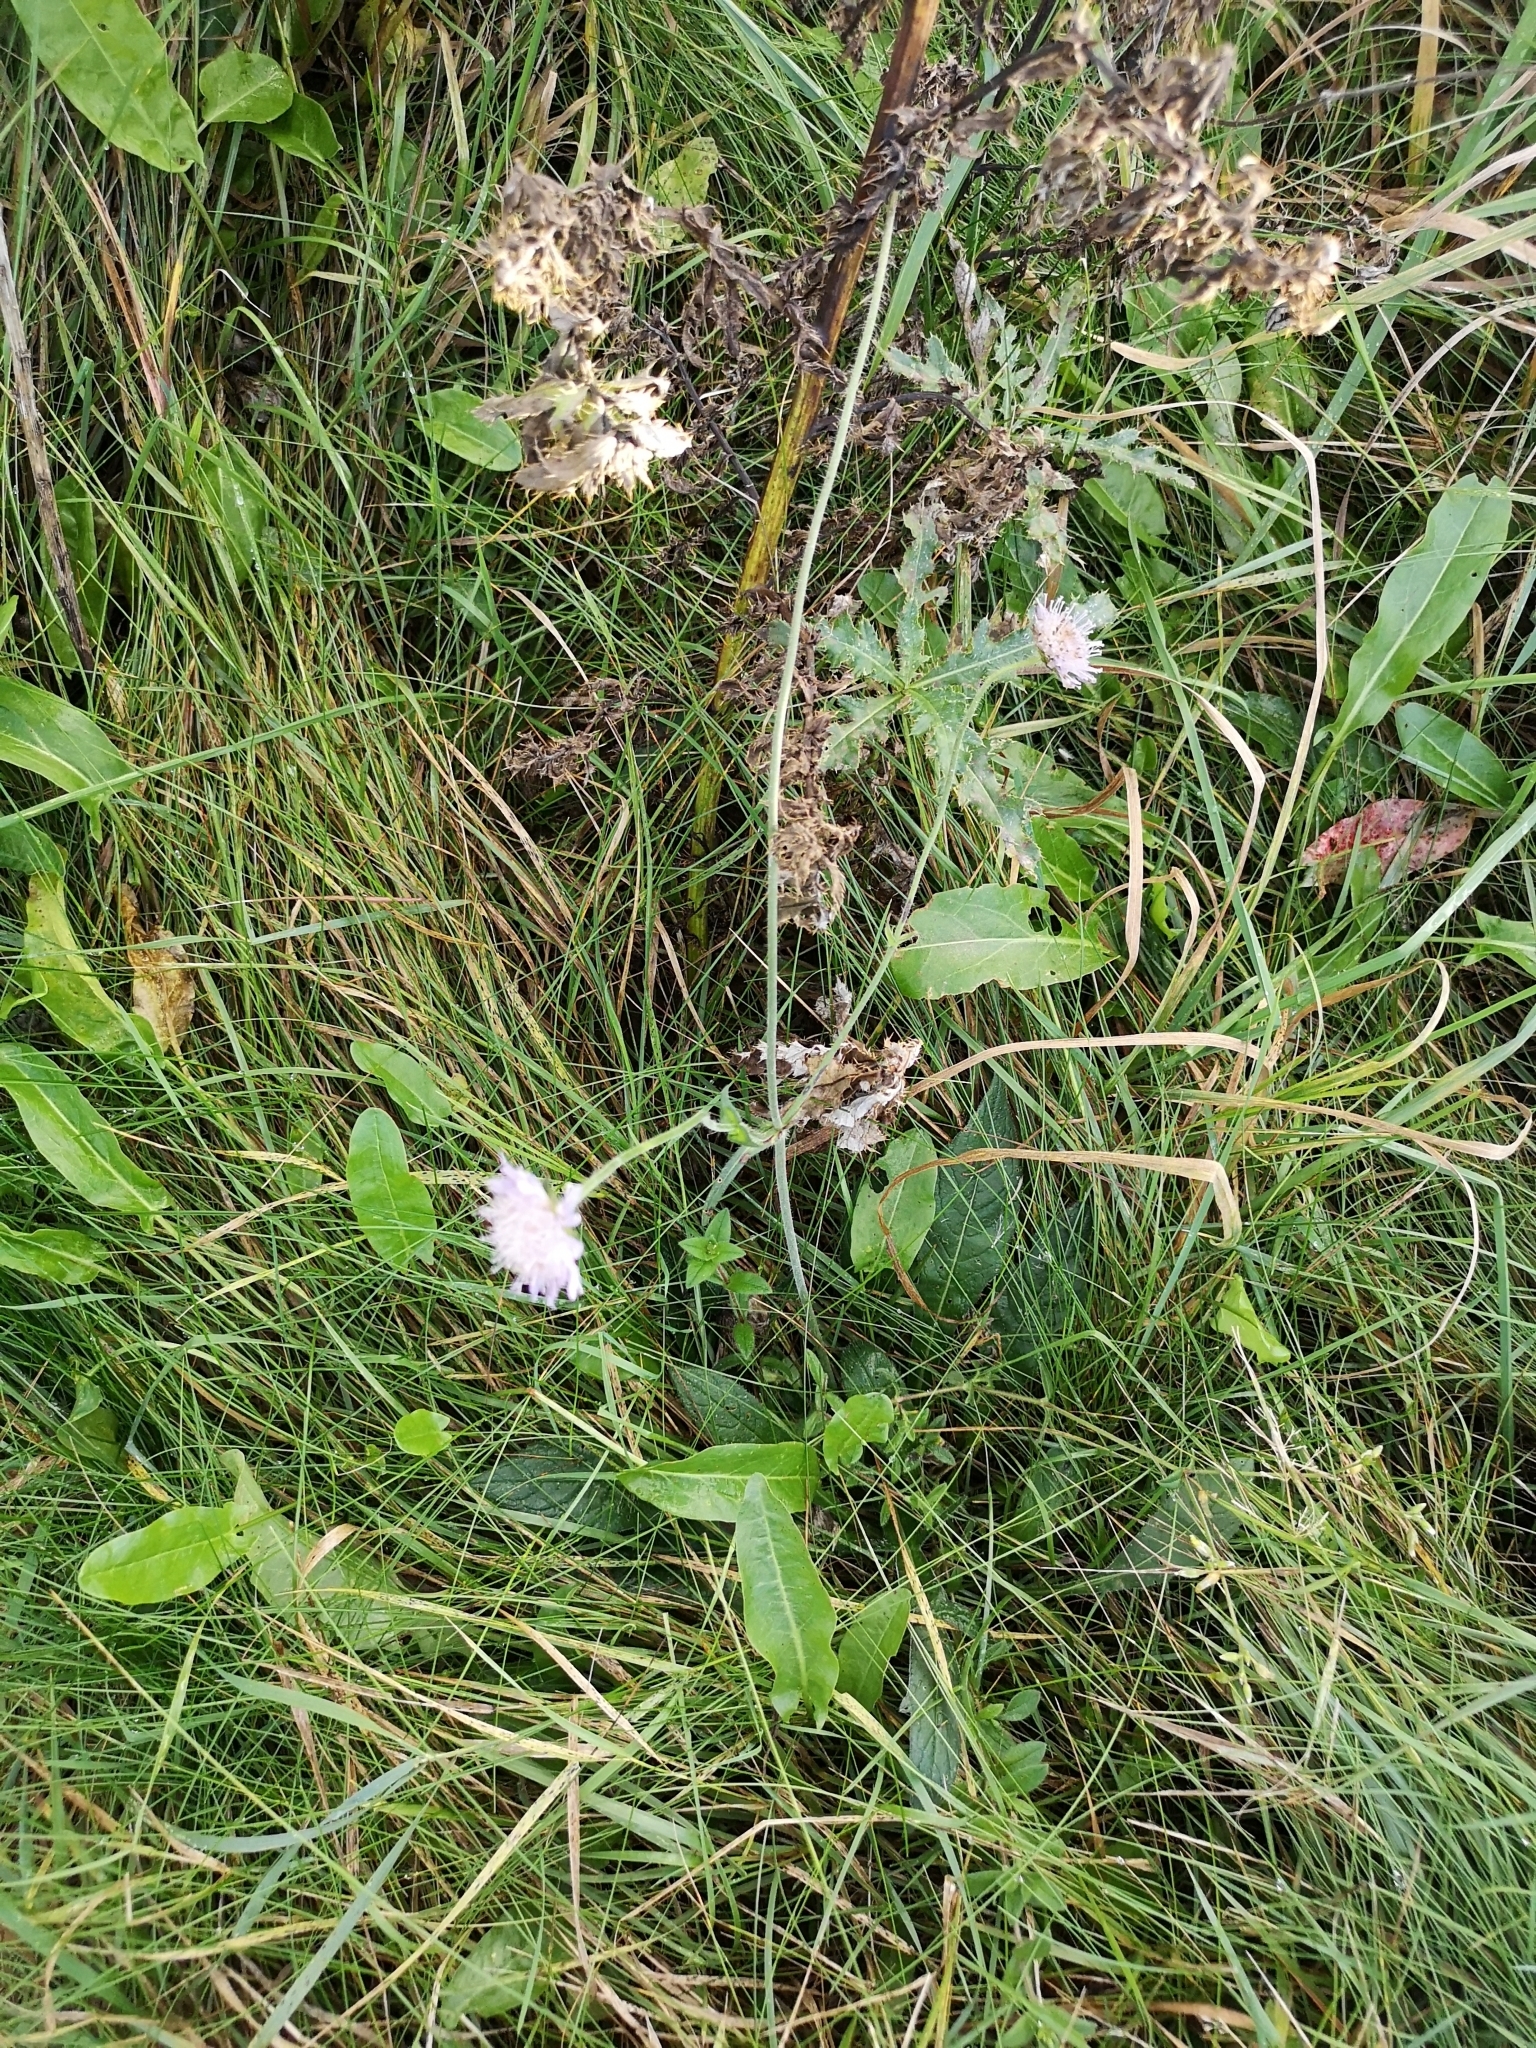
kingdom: Plantae
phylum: Tracheophyta
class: Magnoliopsida
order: Dipsacales
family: Caprifoliaceae
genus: Knautia
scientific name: Knautia arvensis
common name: Field scabiosa
